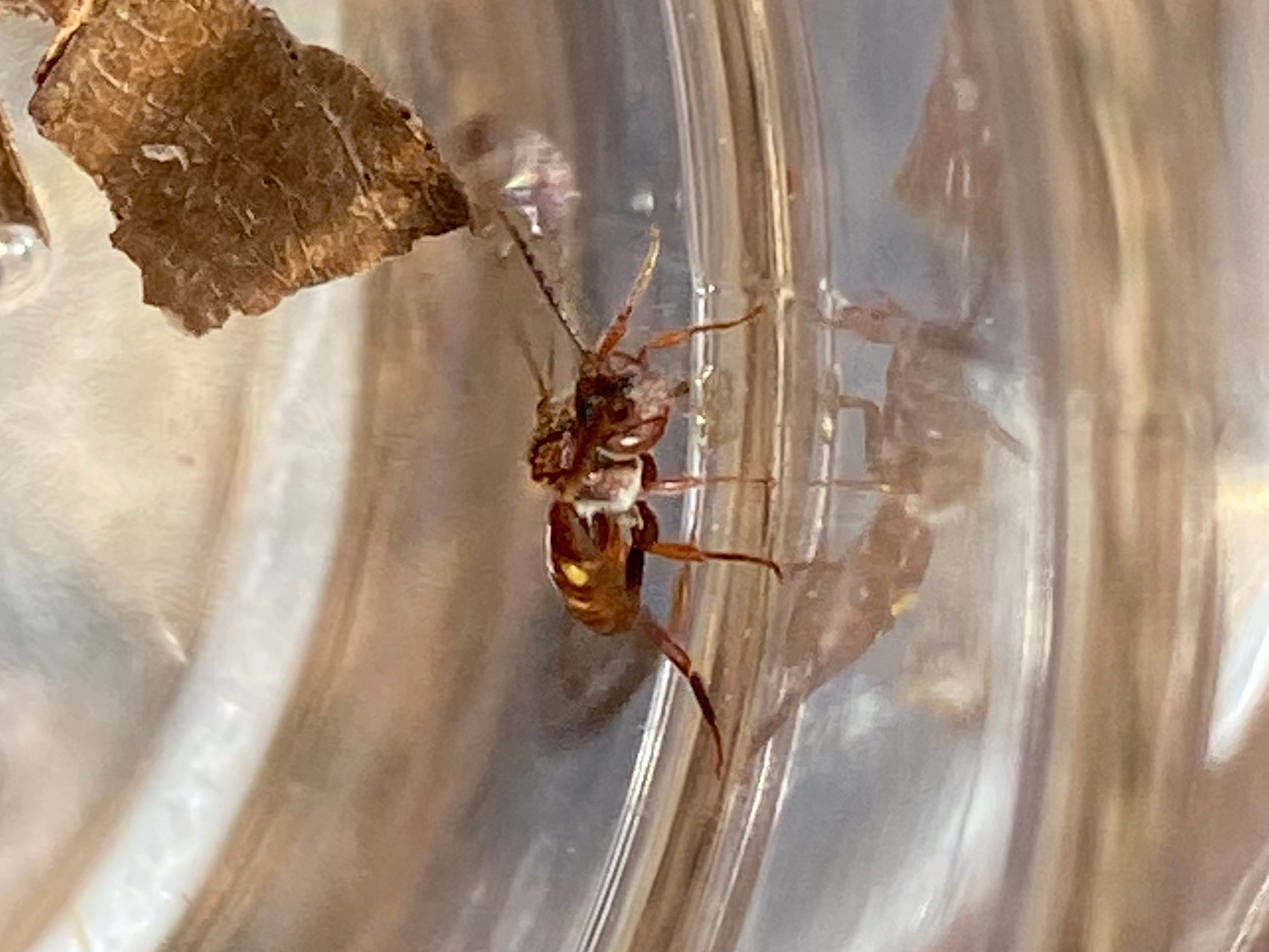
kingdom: Animalia
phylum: Arthropoda
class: Insecta
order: Hymenoptera
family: Apidae
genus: Nomada
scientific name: Nomada
